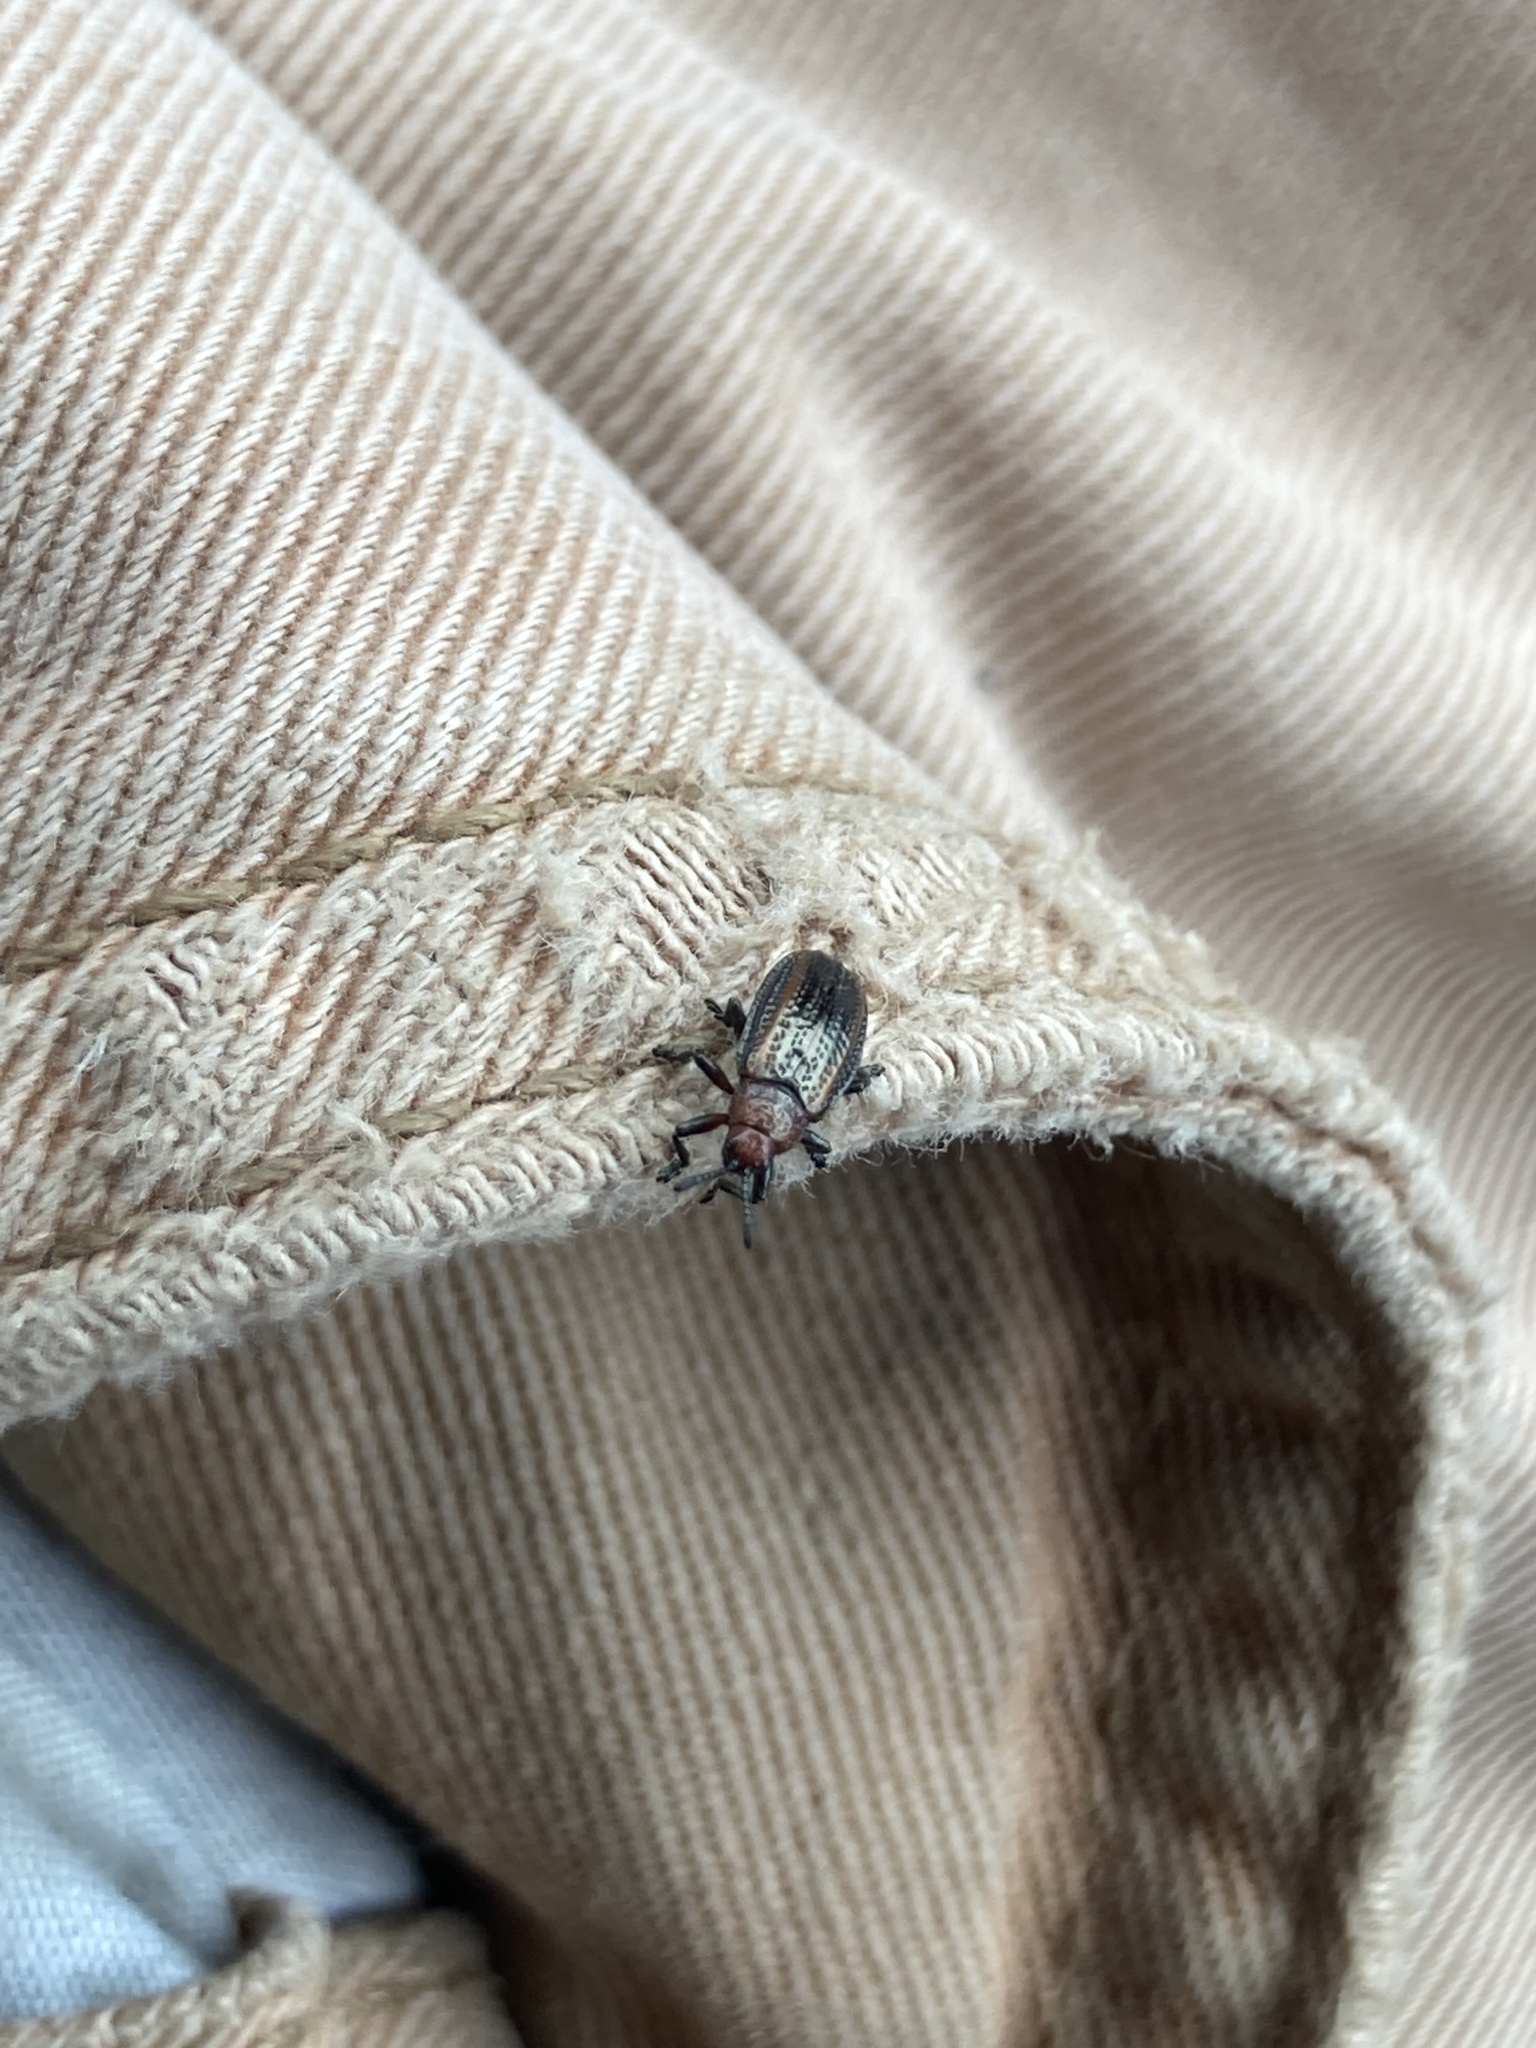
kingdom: Animalia
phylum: Arthropoda
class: Insecta
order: Coleoptera
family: Chrysomelidae
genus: Microrhopala
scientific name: Microrhopala vittata
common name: Goldenrod leaf miner beetle
